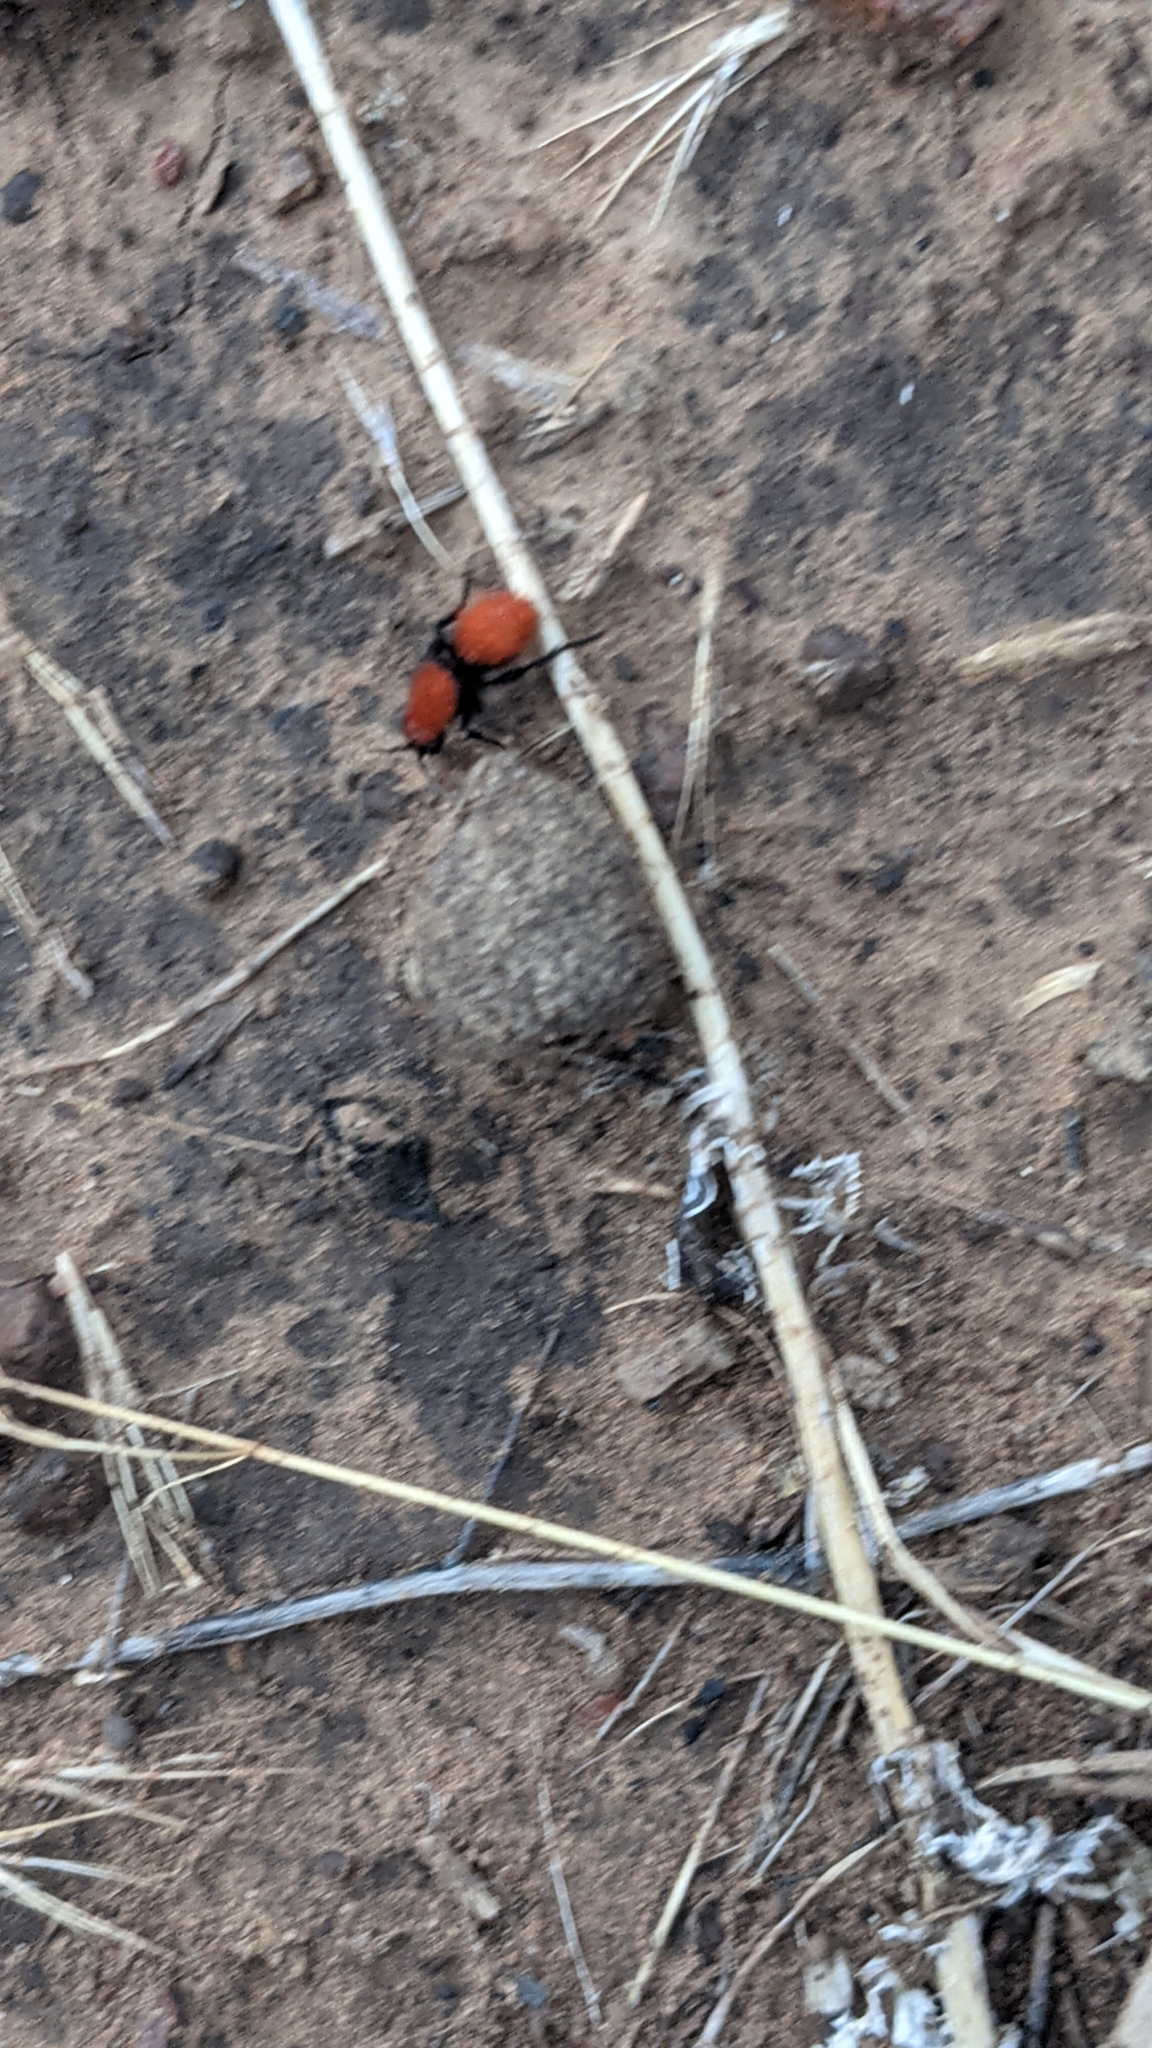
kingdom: Animalia
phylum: Arthropoda
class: Insecta
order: Hymenoptera
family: Mutillidae
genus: Dasymutilla
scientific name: Dasymutilla vestita
